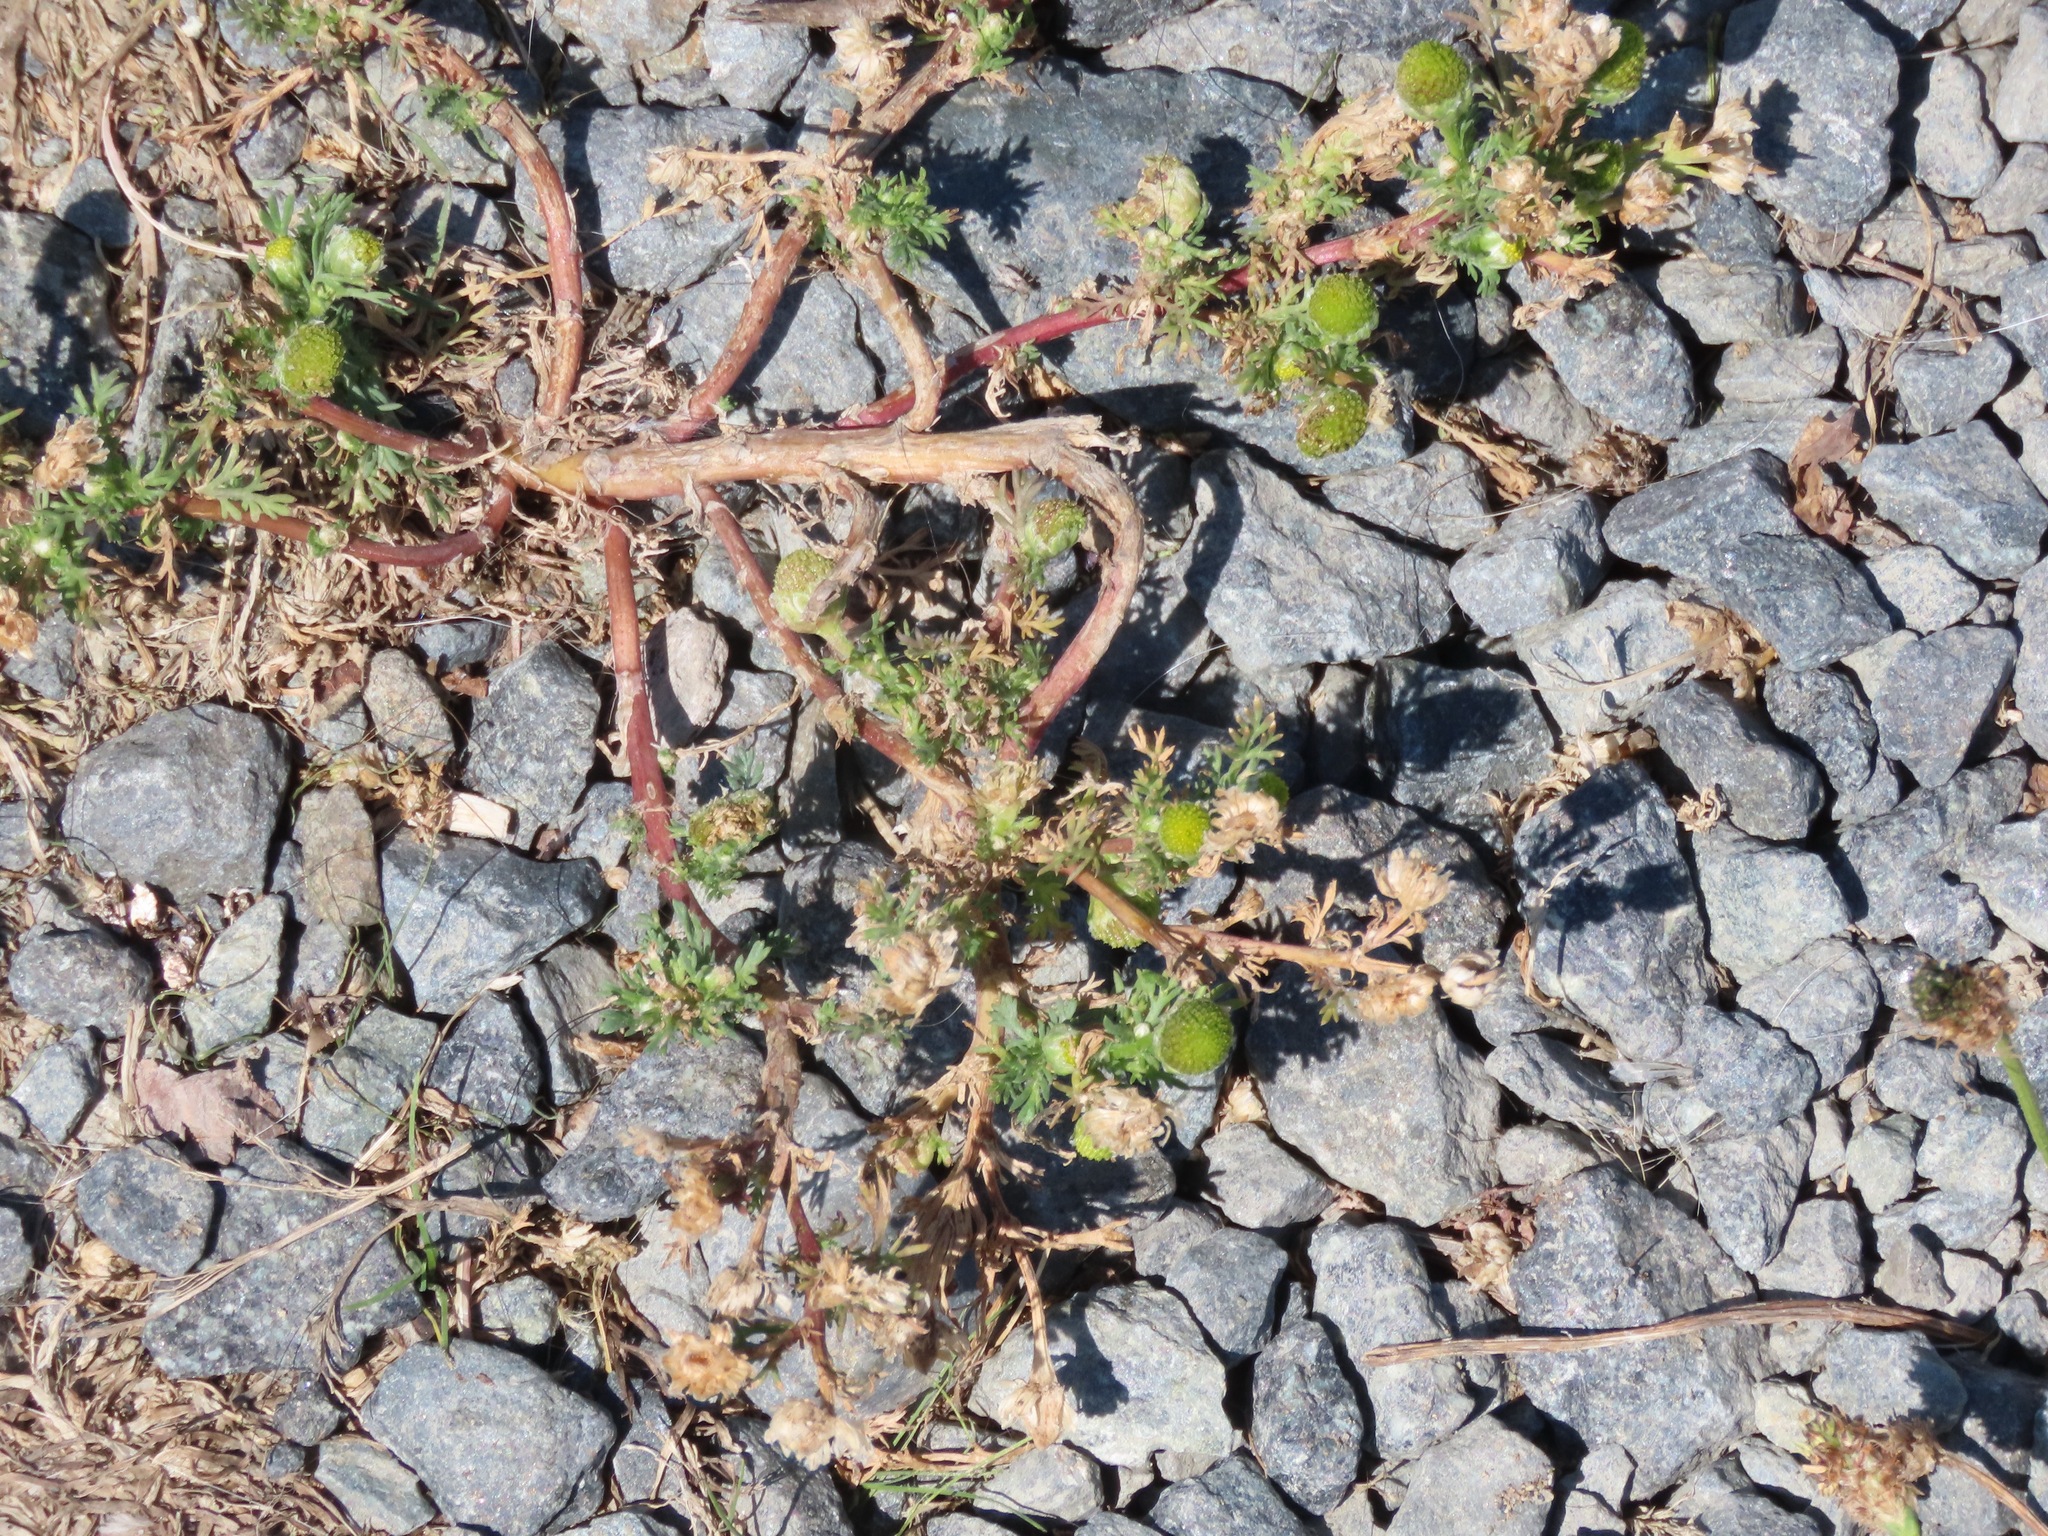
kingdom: Plantae
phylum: Tracheophyta
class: Magnoliopsida
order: Asterales
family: Asteraceae
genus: Matricaria
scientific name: Matricaria discoidea
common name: Disc mayweed
